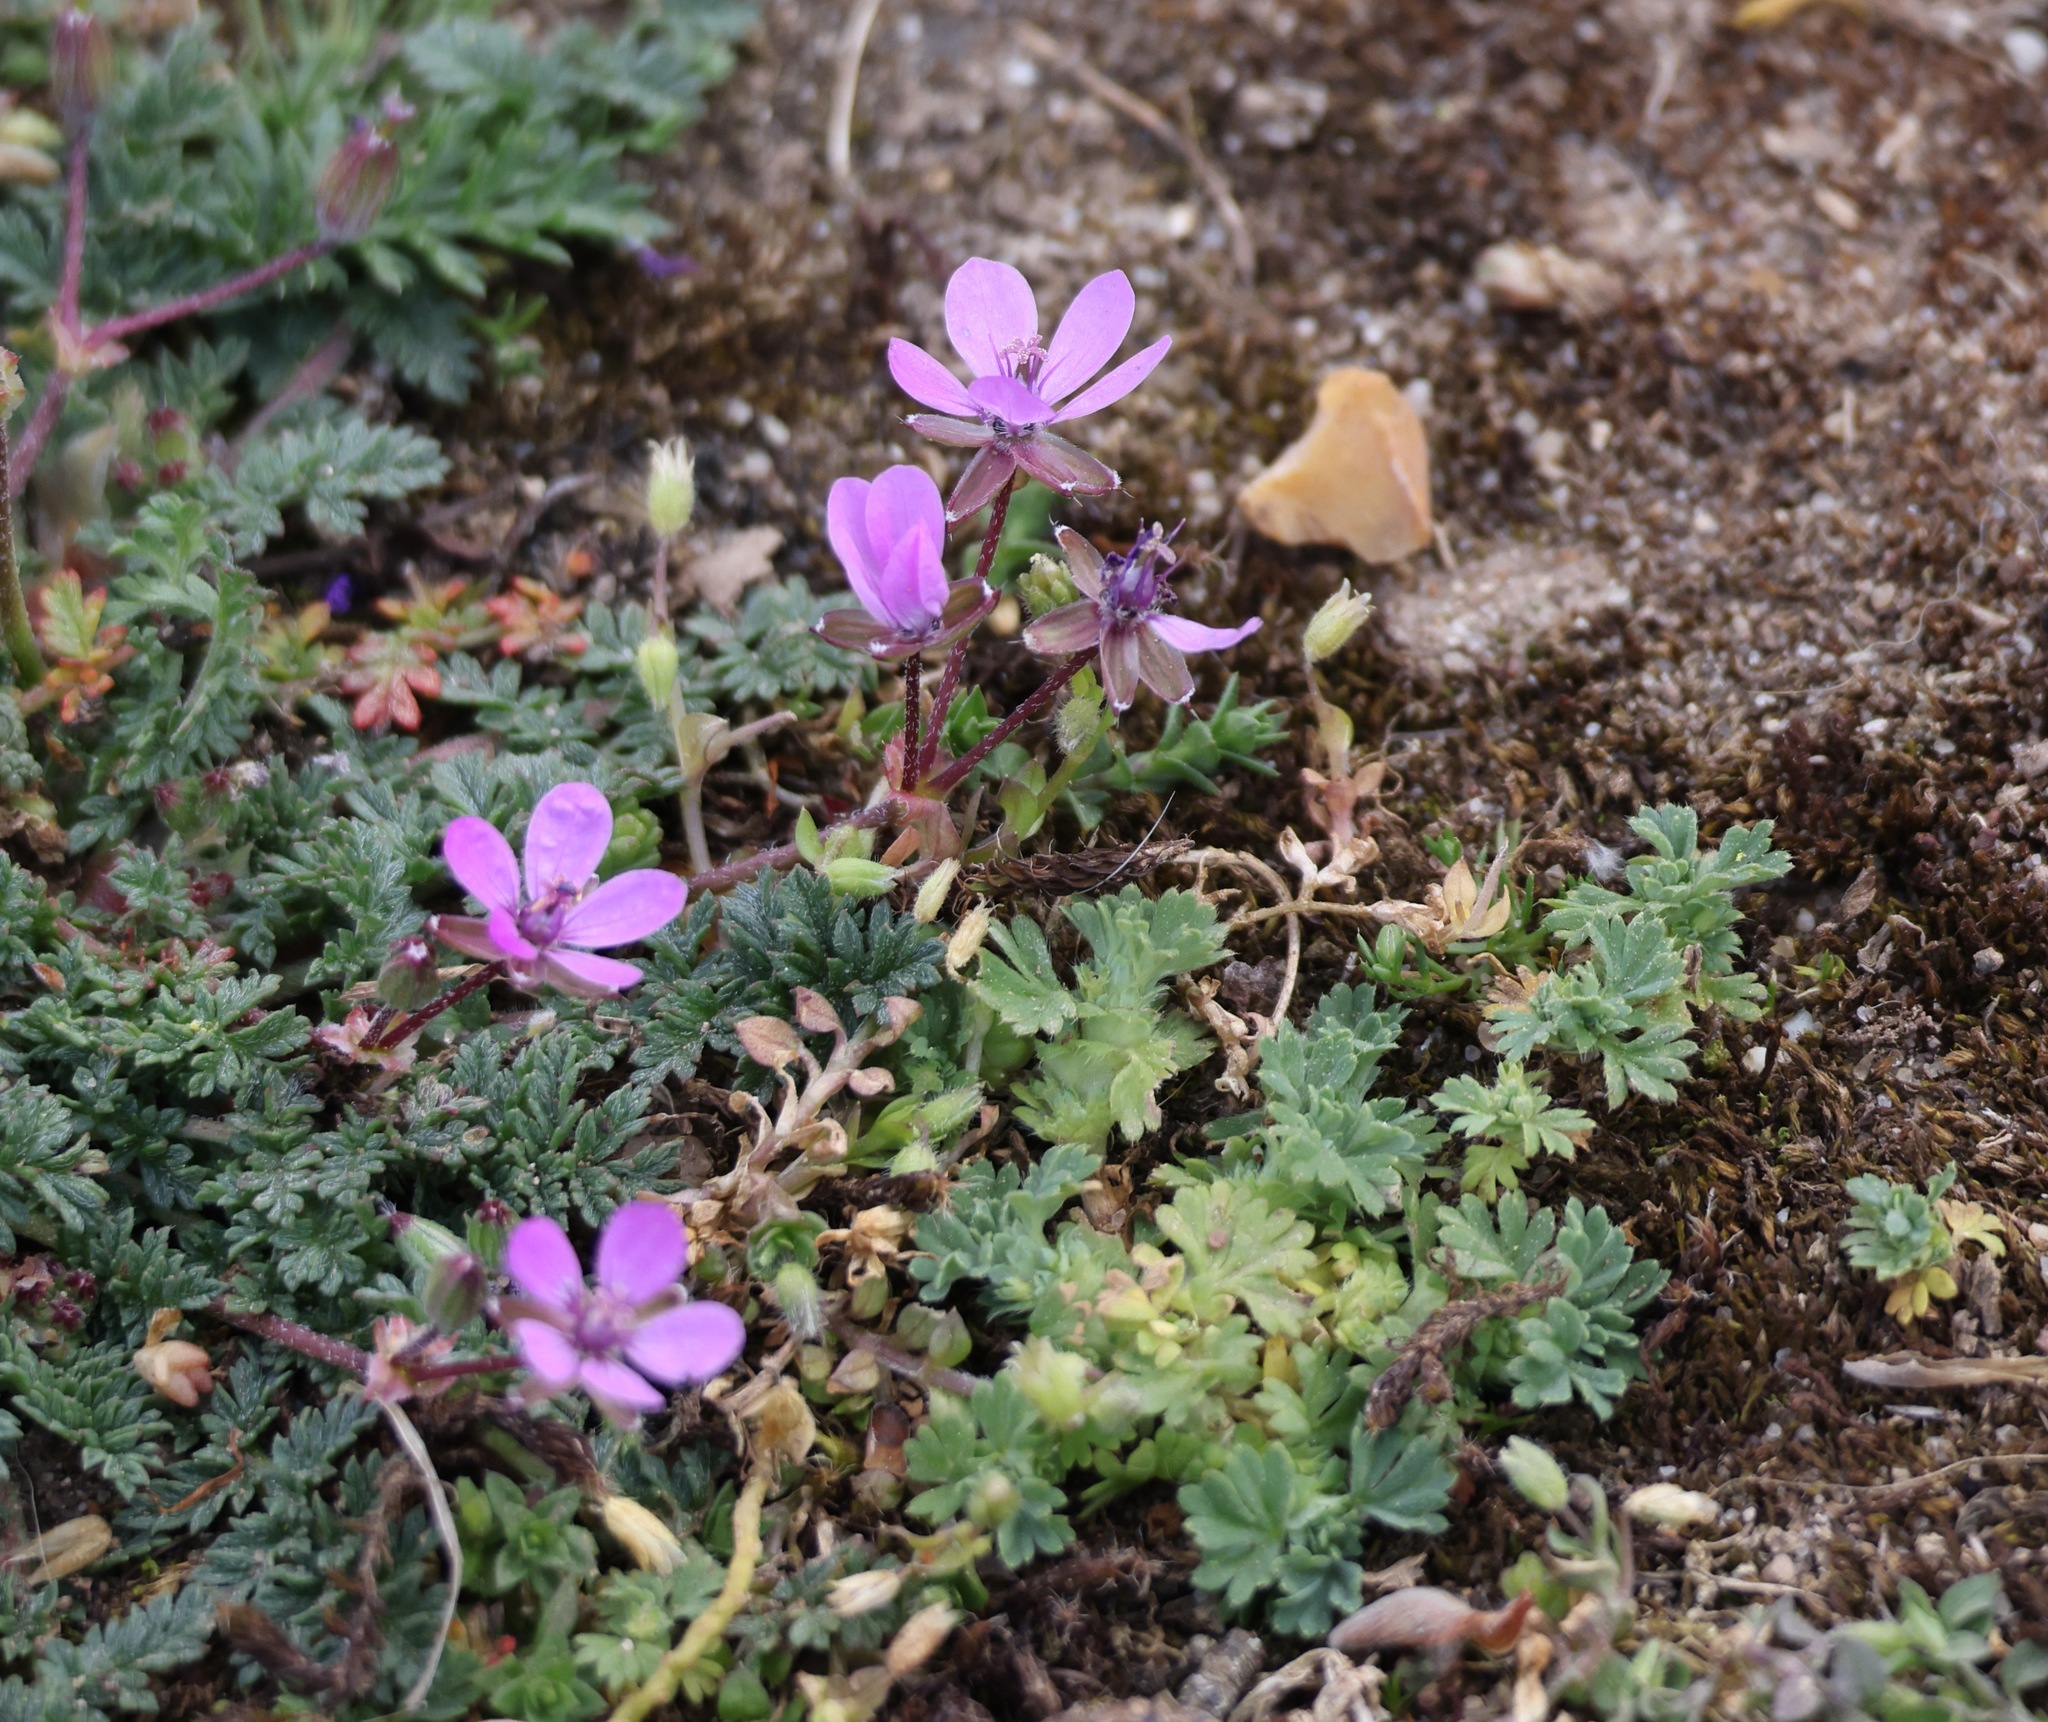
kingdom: Plantae
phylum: Tracheophyta
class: Magnoliopsida
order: Geraniales
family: Geraniaceae
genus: Erodium
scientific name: Erodium cicutarium
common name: Common stork's-bill
